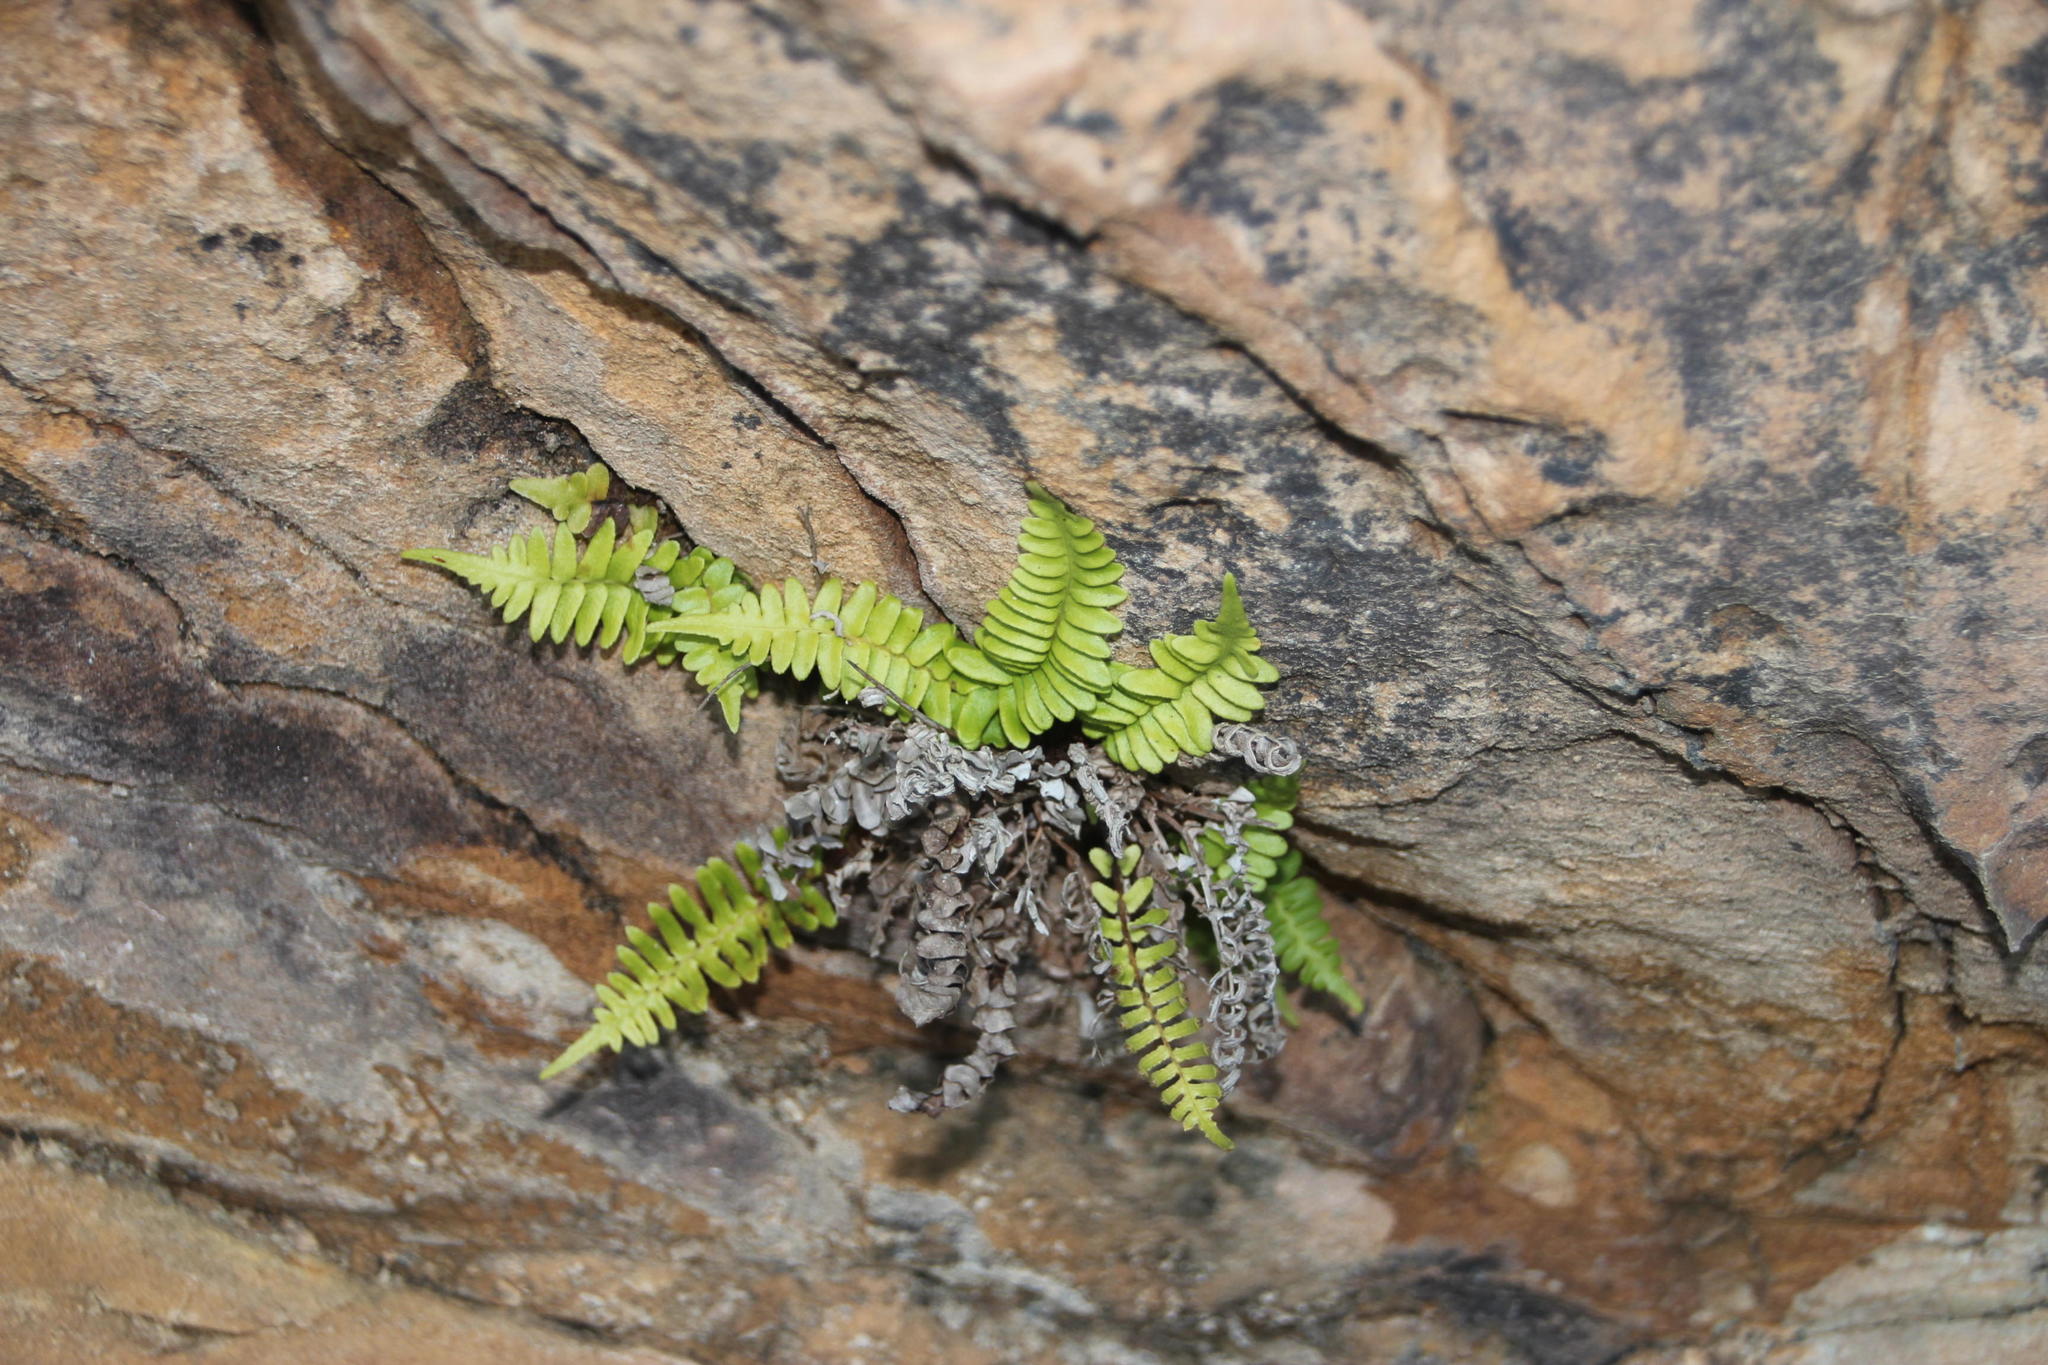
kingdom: Plantae
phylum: Tracheophyta
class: Polypodiopsida
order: Polypodiales
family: Blechnaceae
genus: Blechnum
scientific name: Blechnum australe
